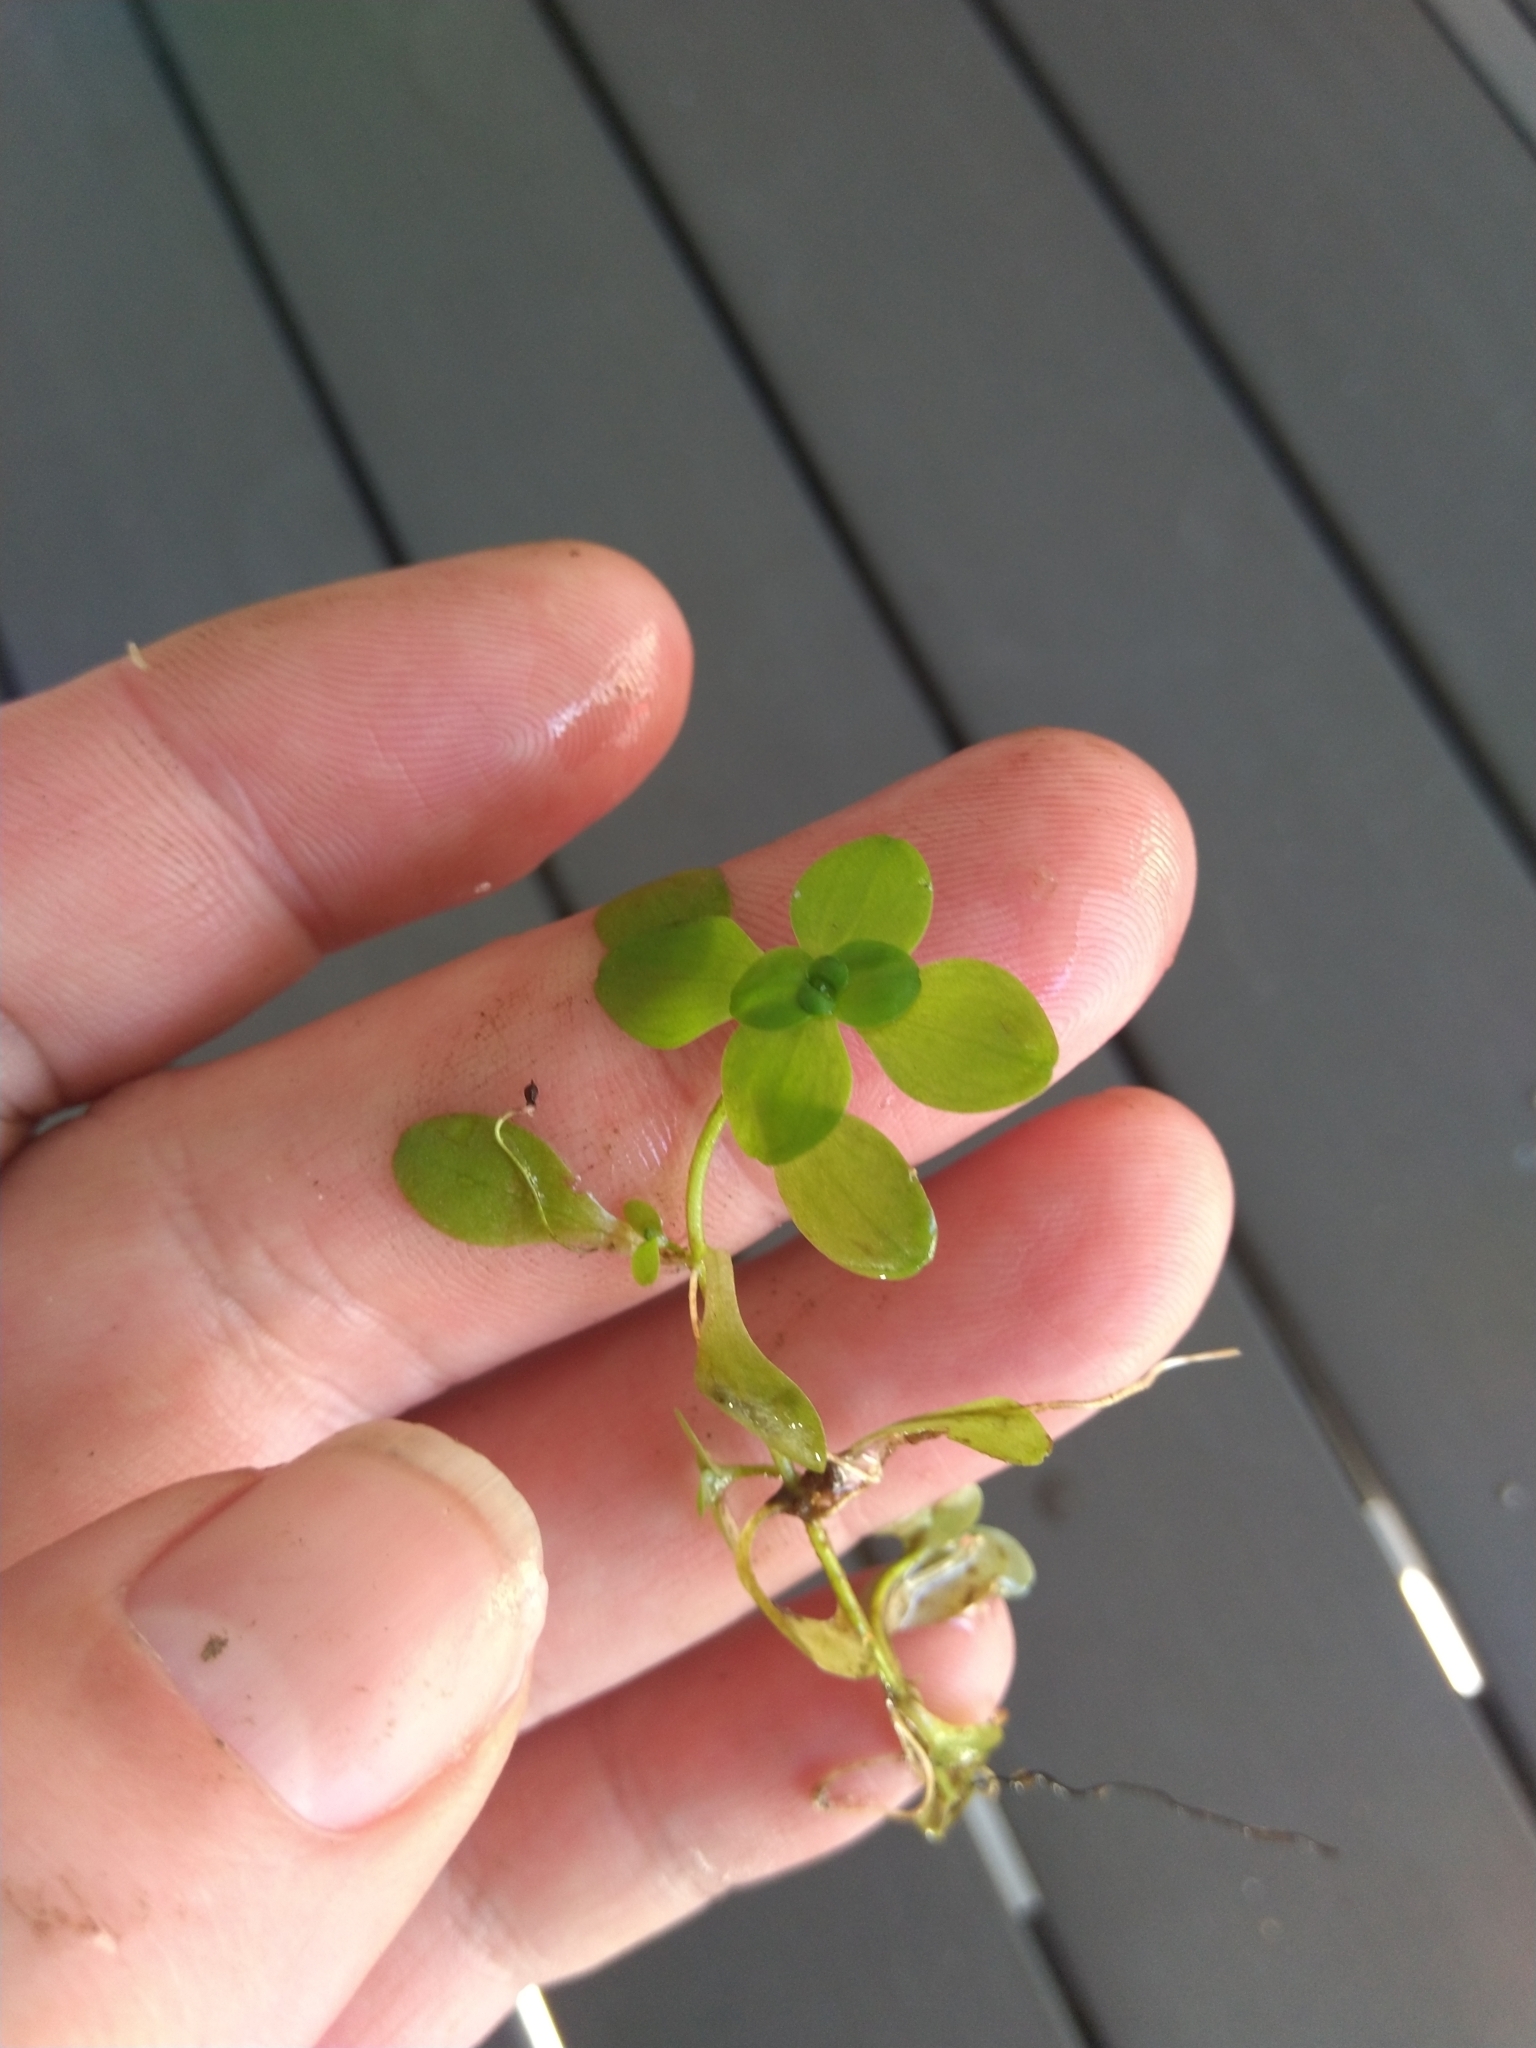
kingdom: Plantae
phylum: Tracheophyta
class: Magnoliopsida
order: Lamiales
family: Plantaginaceae
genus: Callitriche
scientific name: Callitriche stagnalis
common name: Common water-starwort
